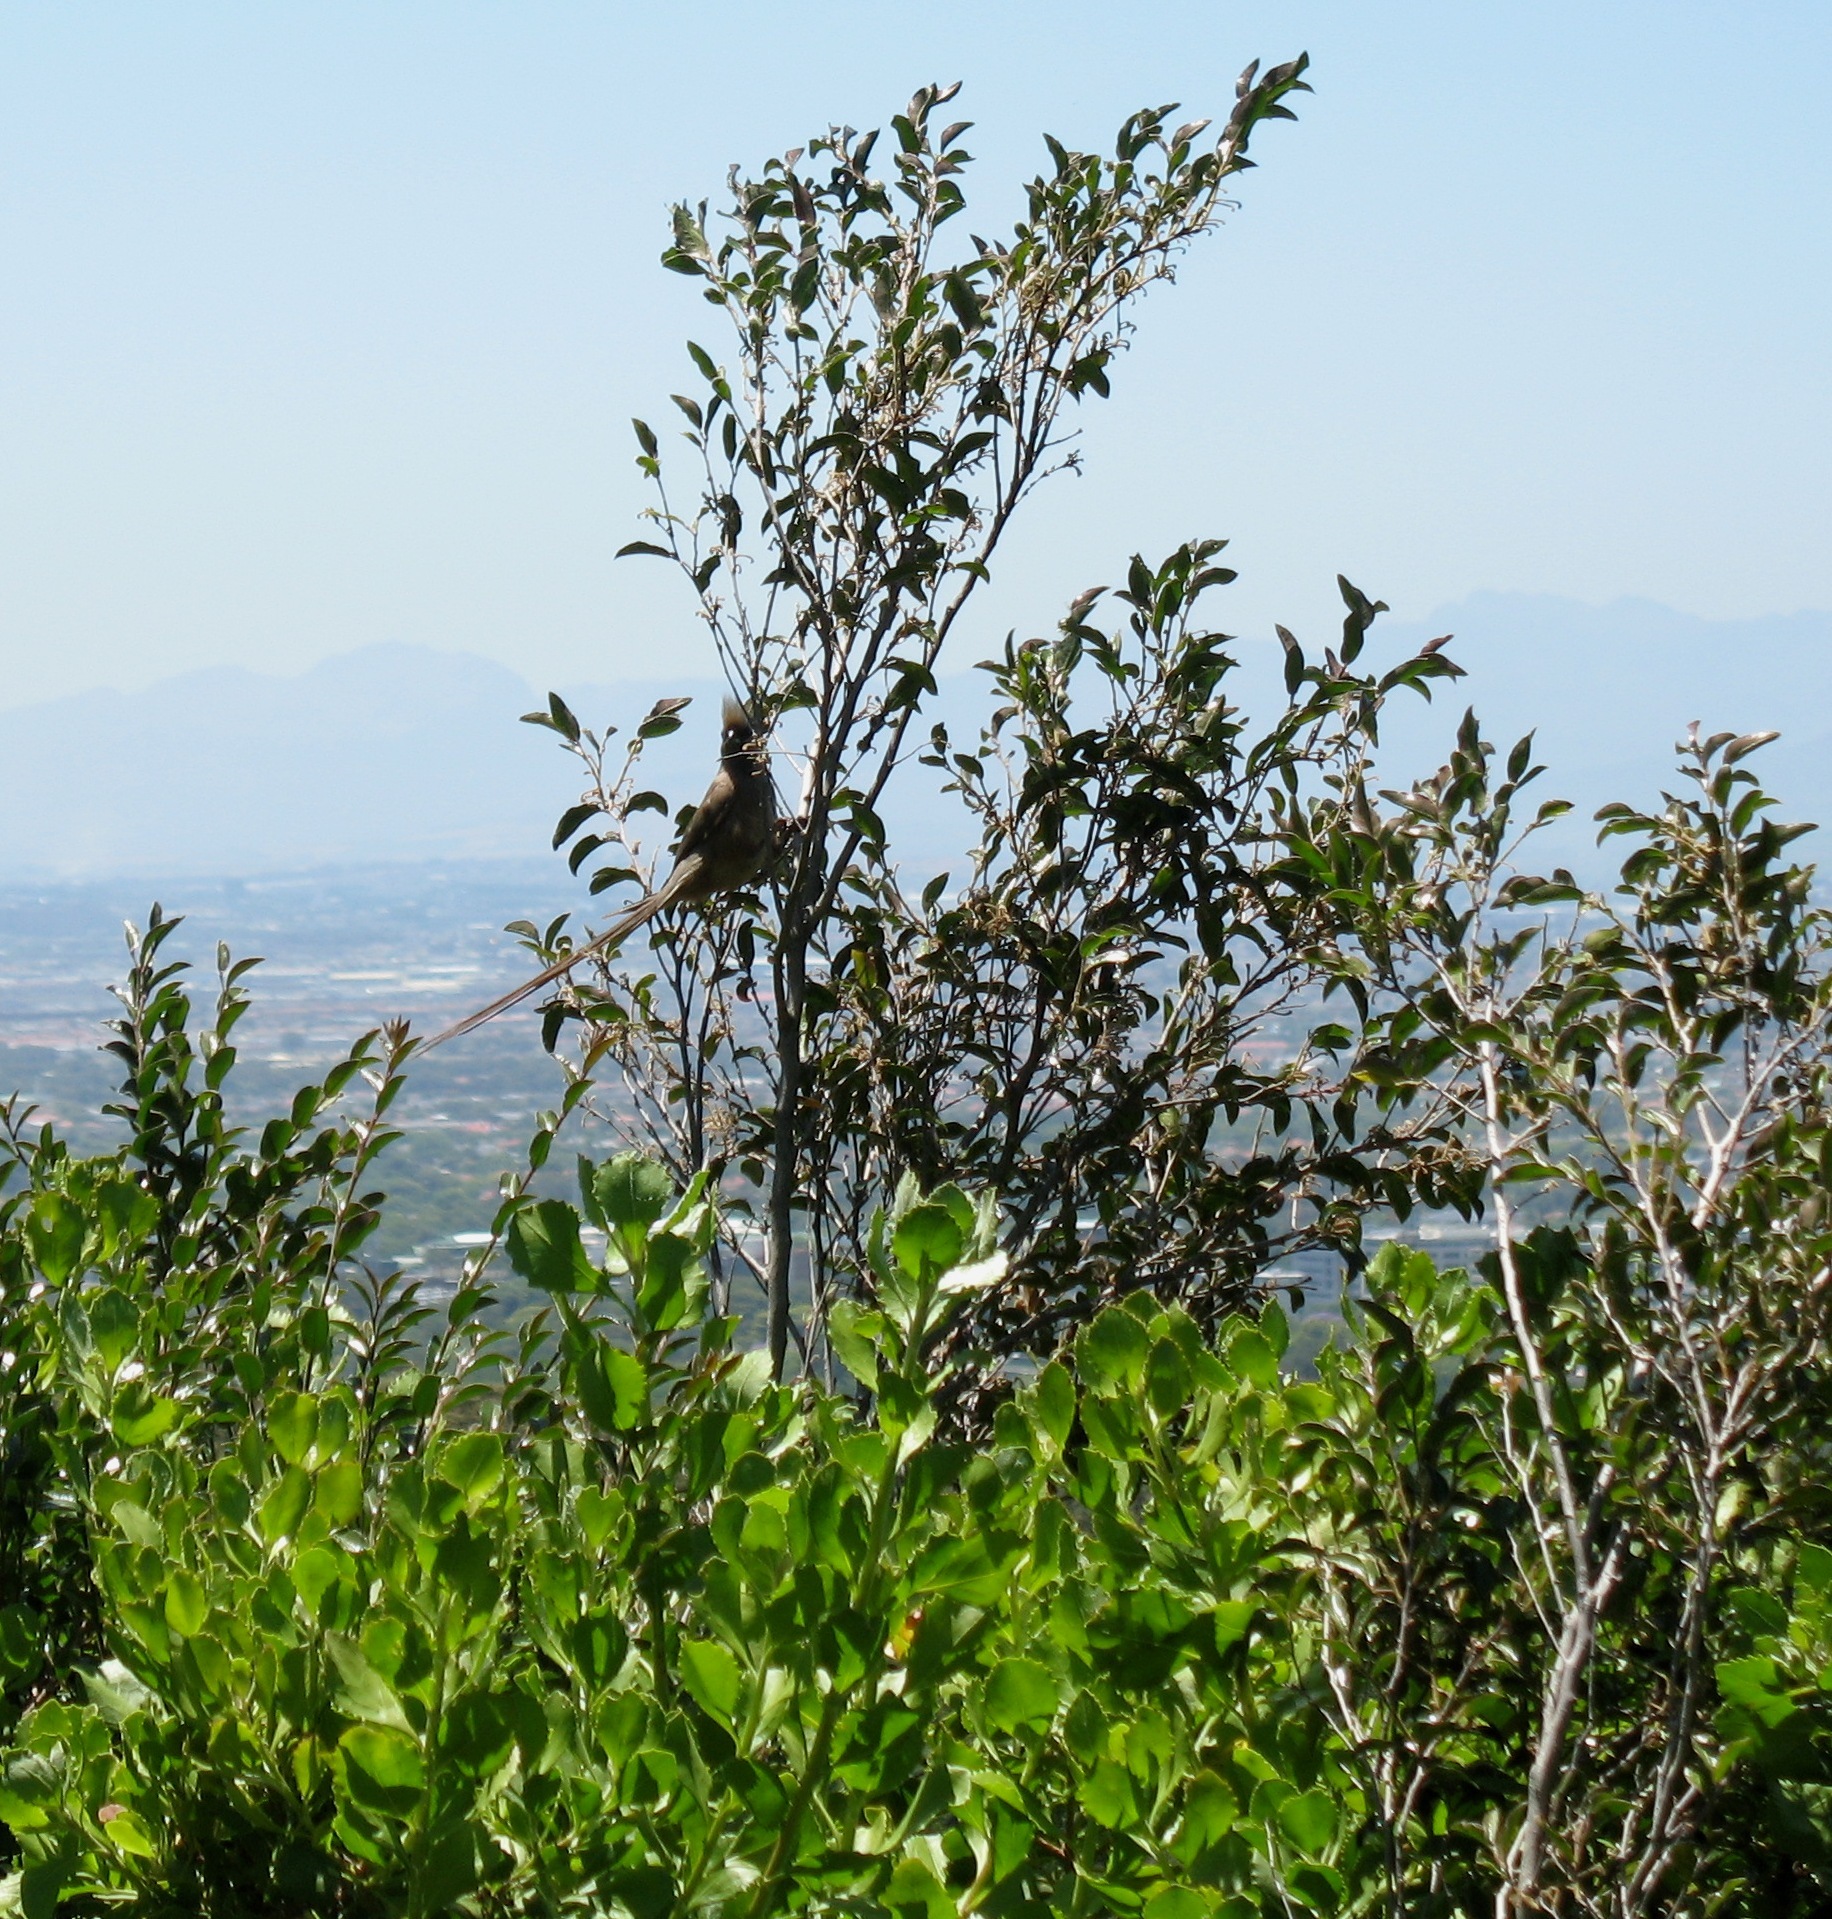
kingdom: Animalia
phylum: Chordata
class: Aves
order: Coliiformes
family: Coliidae
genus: Colius
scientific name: Colius striatus
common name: Speckled mousebird
